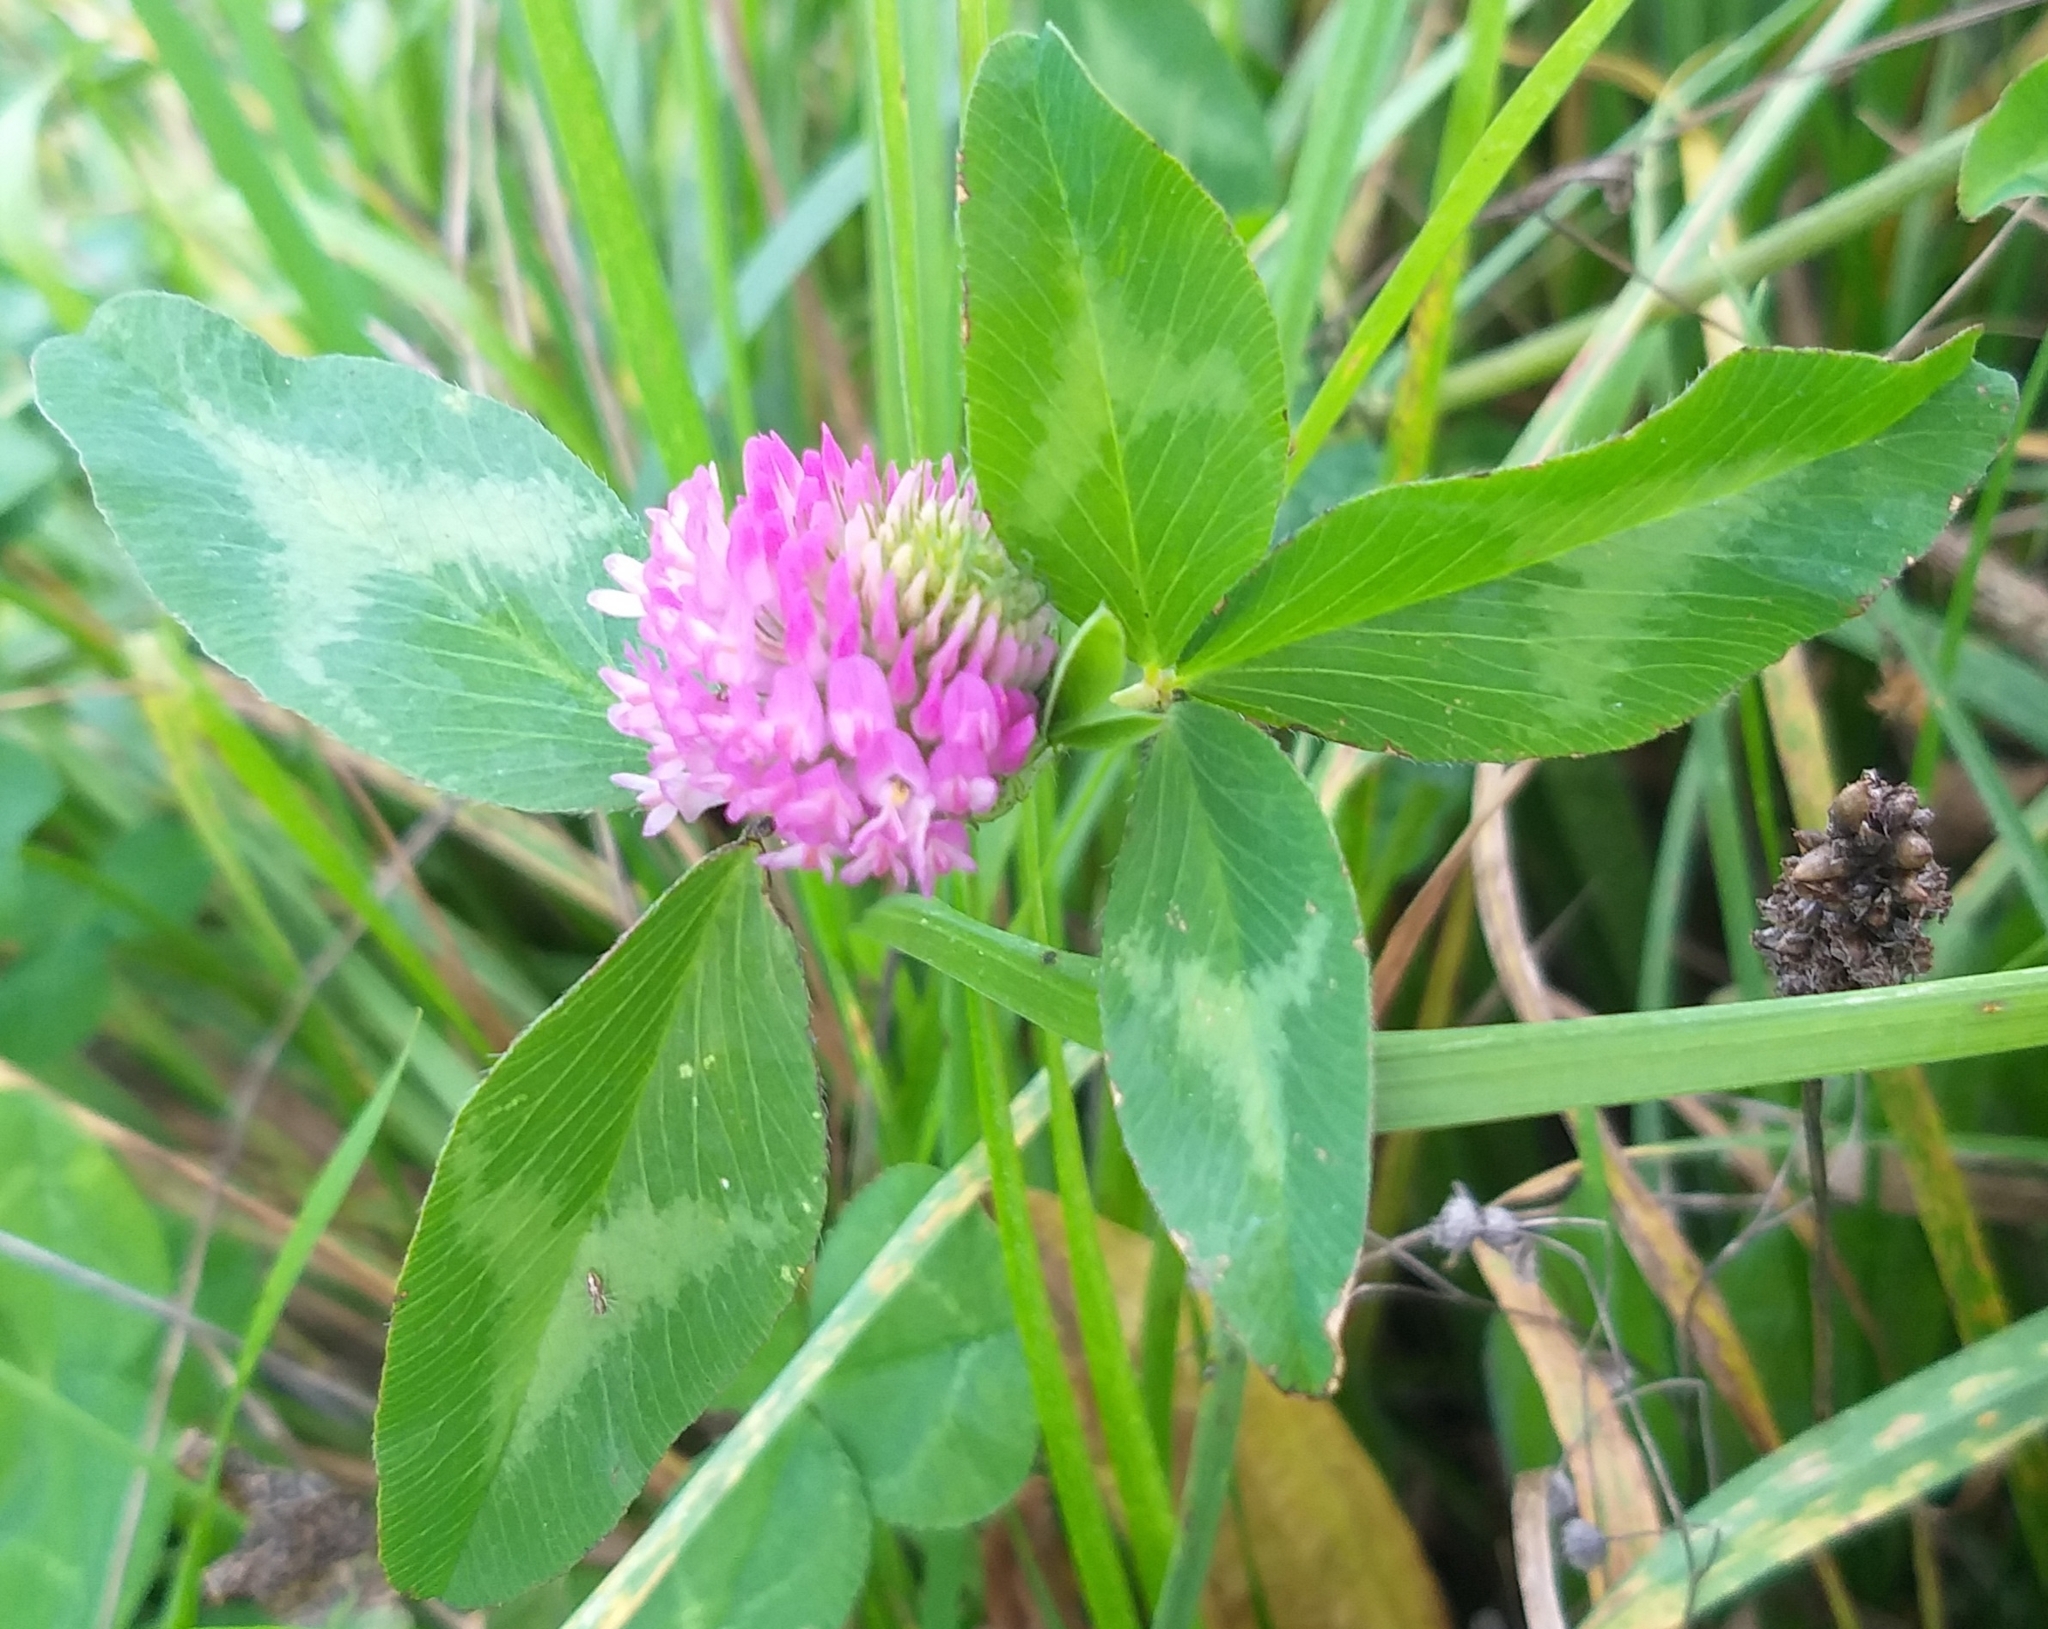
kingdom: Plantae
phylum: Tracheophyta
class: Magnoliopsida
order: Fabales
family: Fabaceae
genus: Trifolium
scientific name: Trifolium pratense
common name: Red clover
